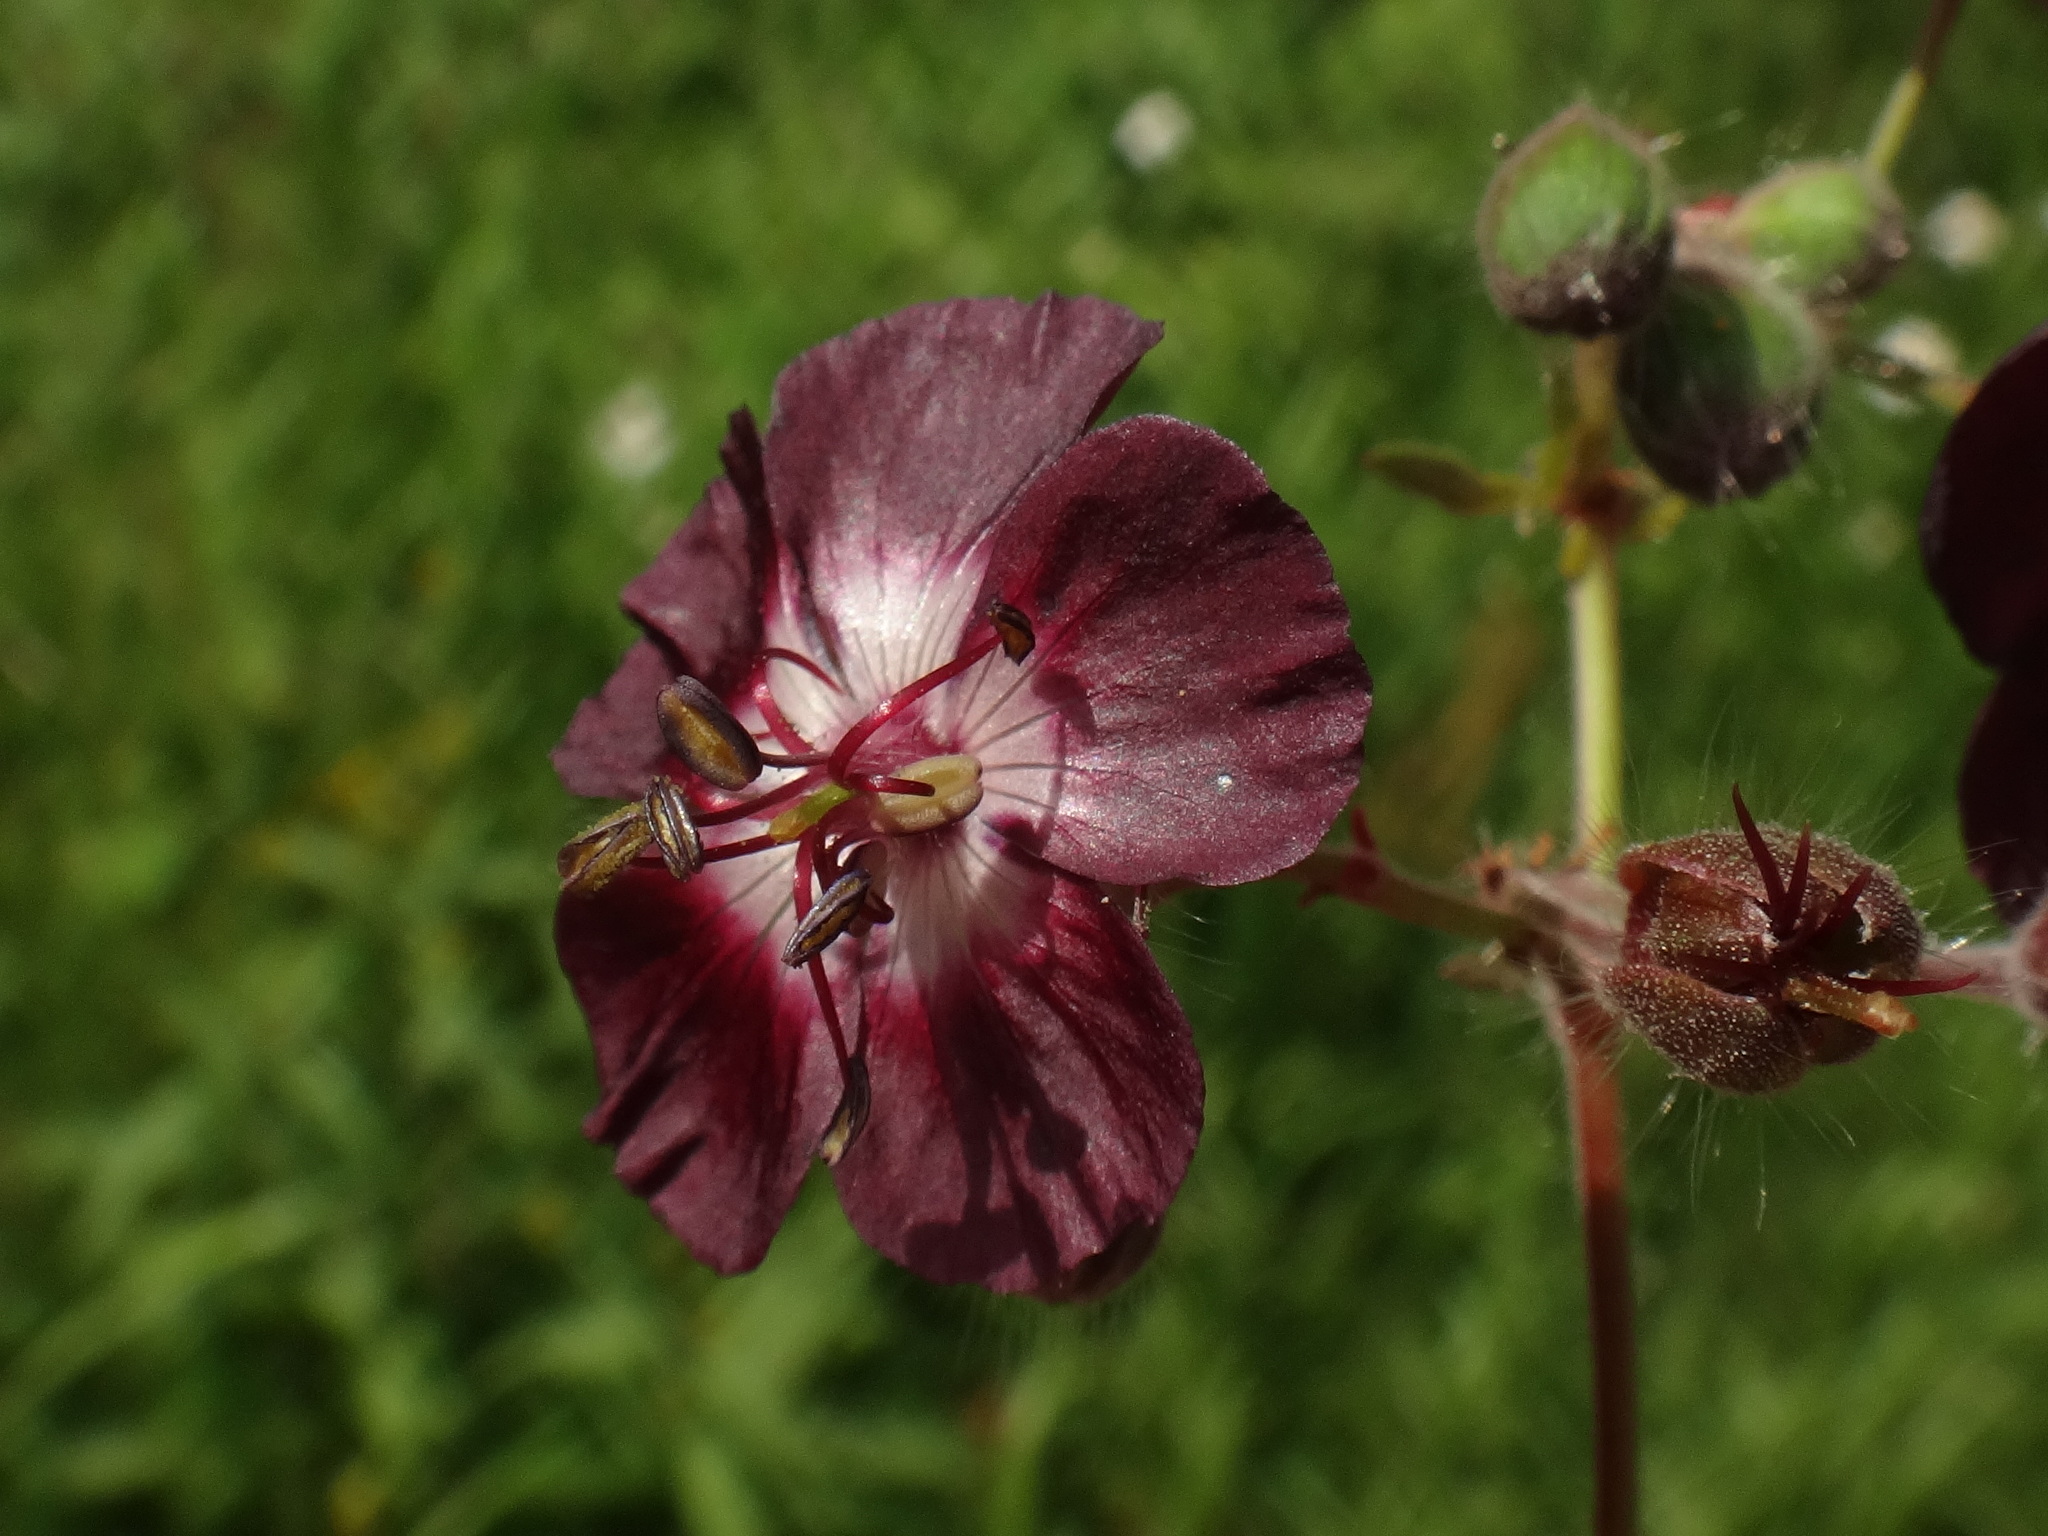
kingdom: Plantae
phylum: Tracheophyta
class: Magnoliopsida
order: Geraniales
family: Geraniaceae
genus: Geranium
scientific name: Geranium phaeum
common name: Dusky crane's-bill
